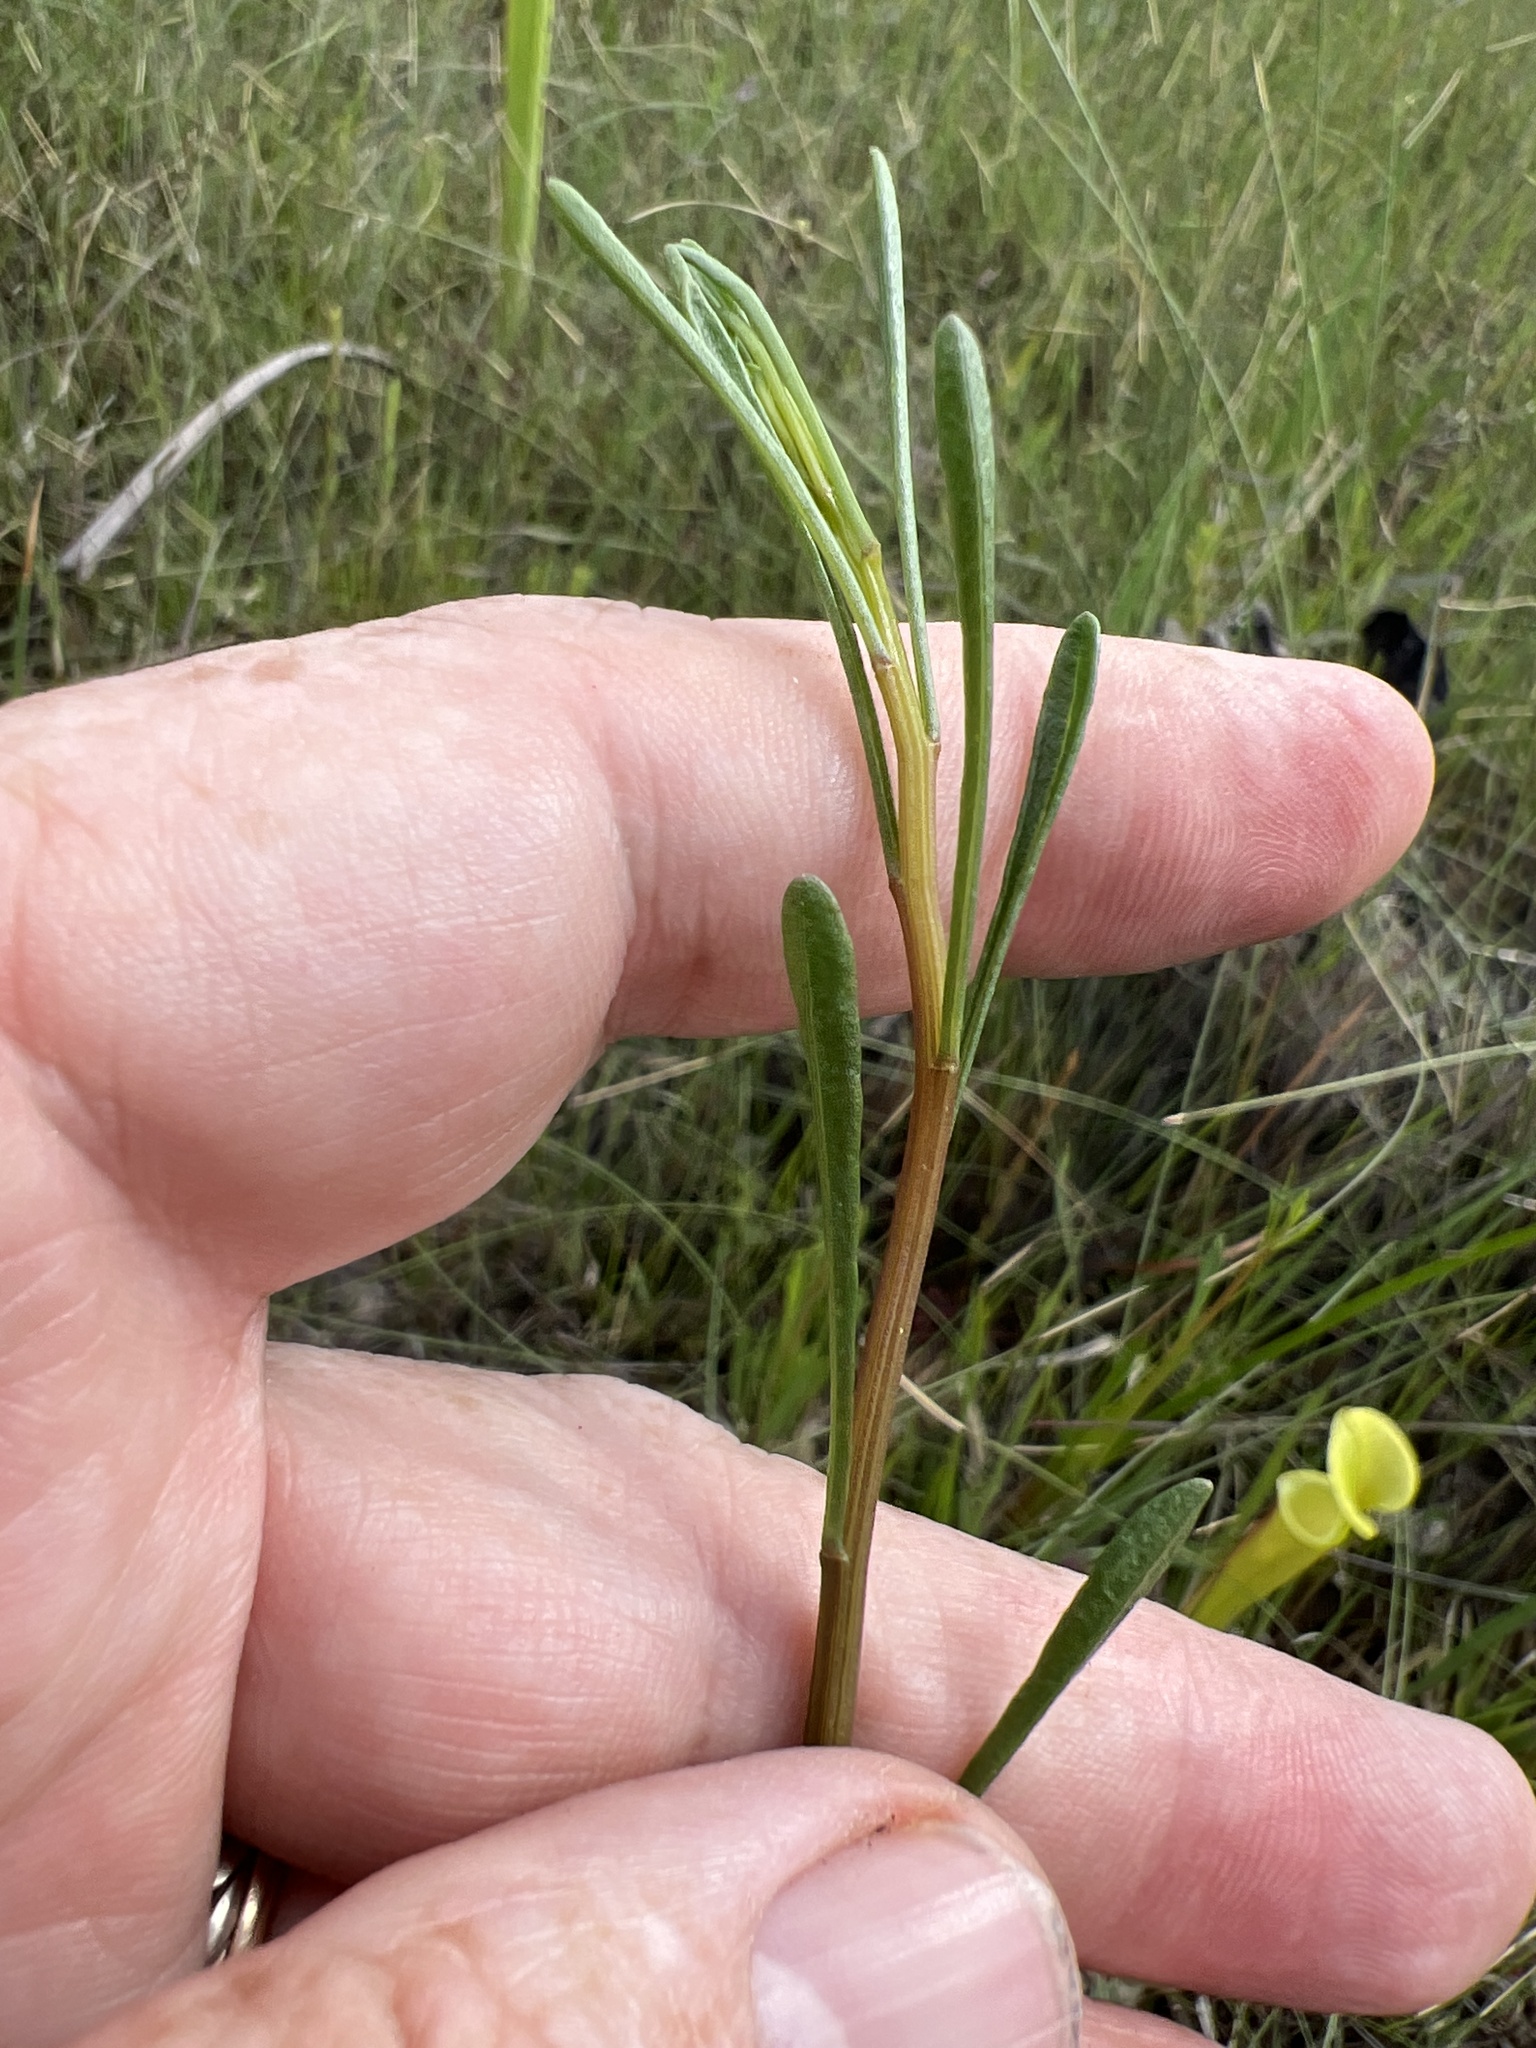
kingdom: Plantae
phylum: Tracheophyta
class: Magnoliopsida
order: Asterales
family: Asteraceae
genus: Balduina
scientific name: Balduina uniflora
